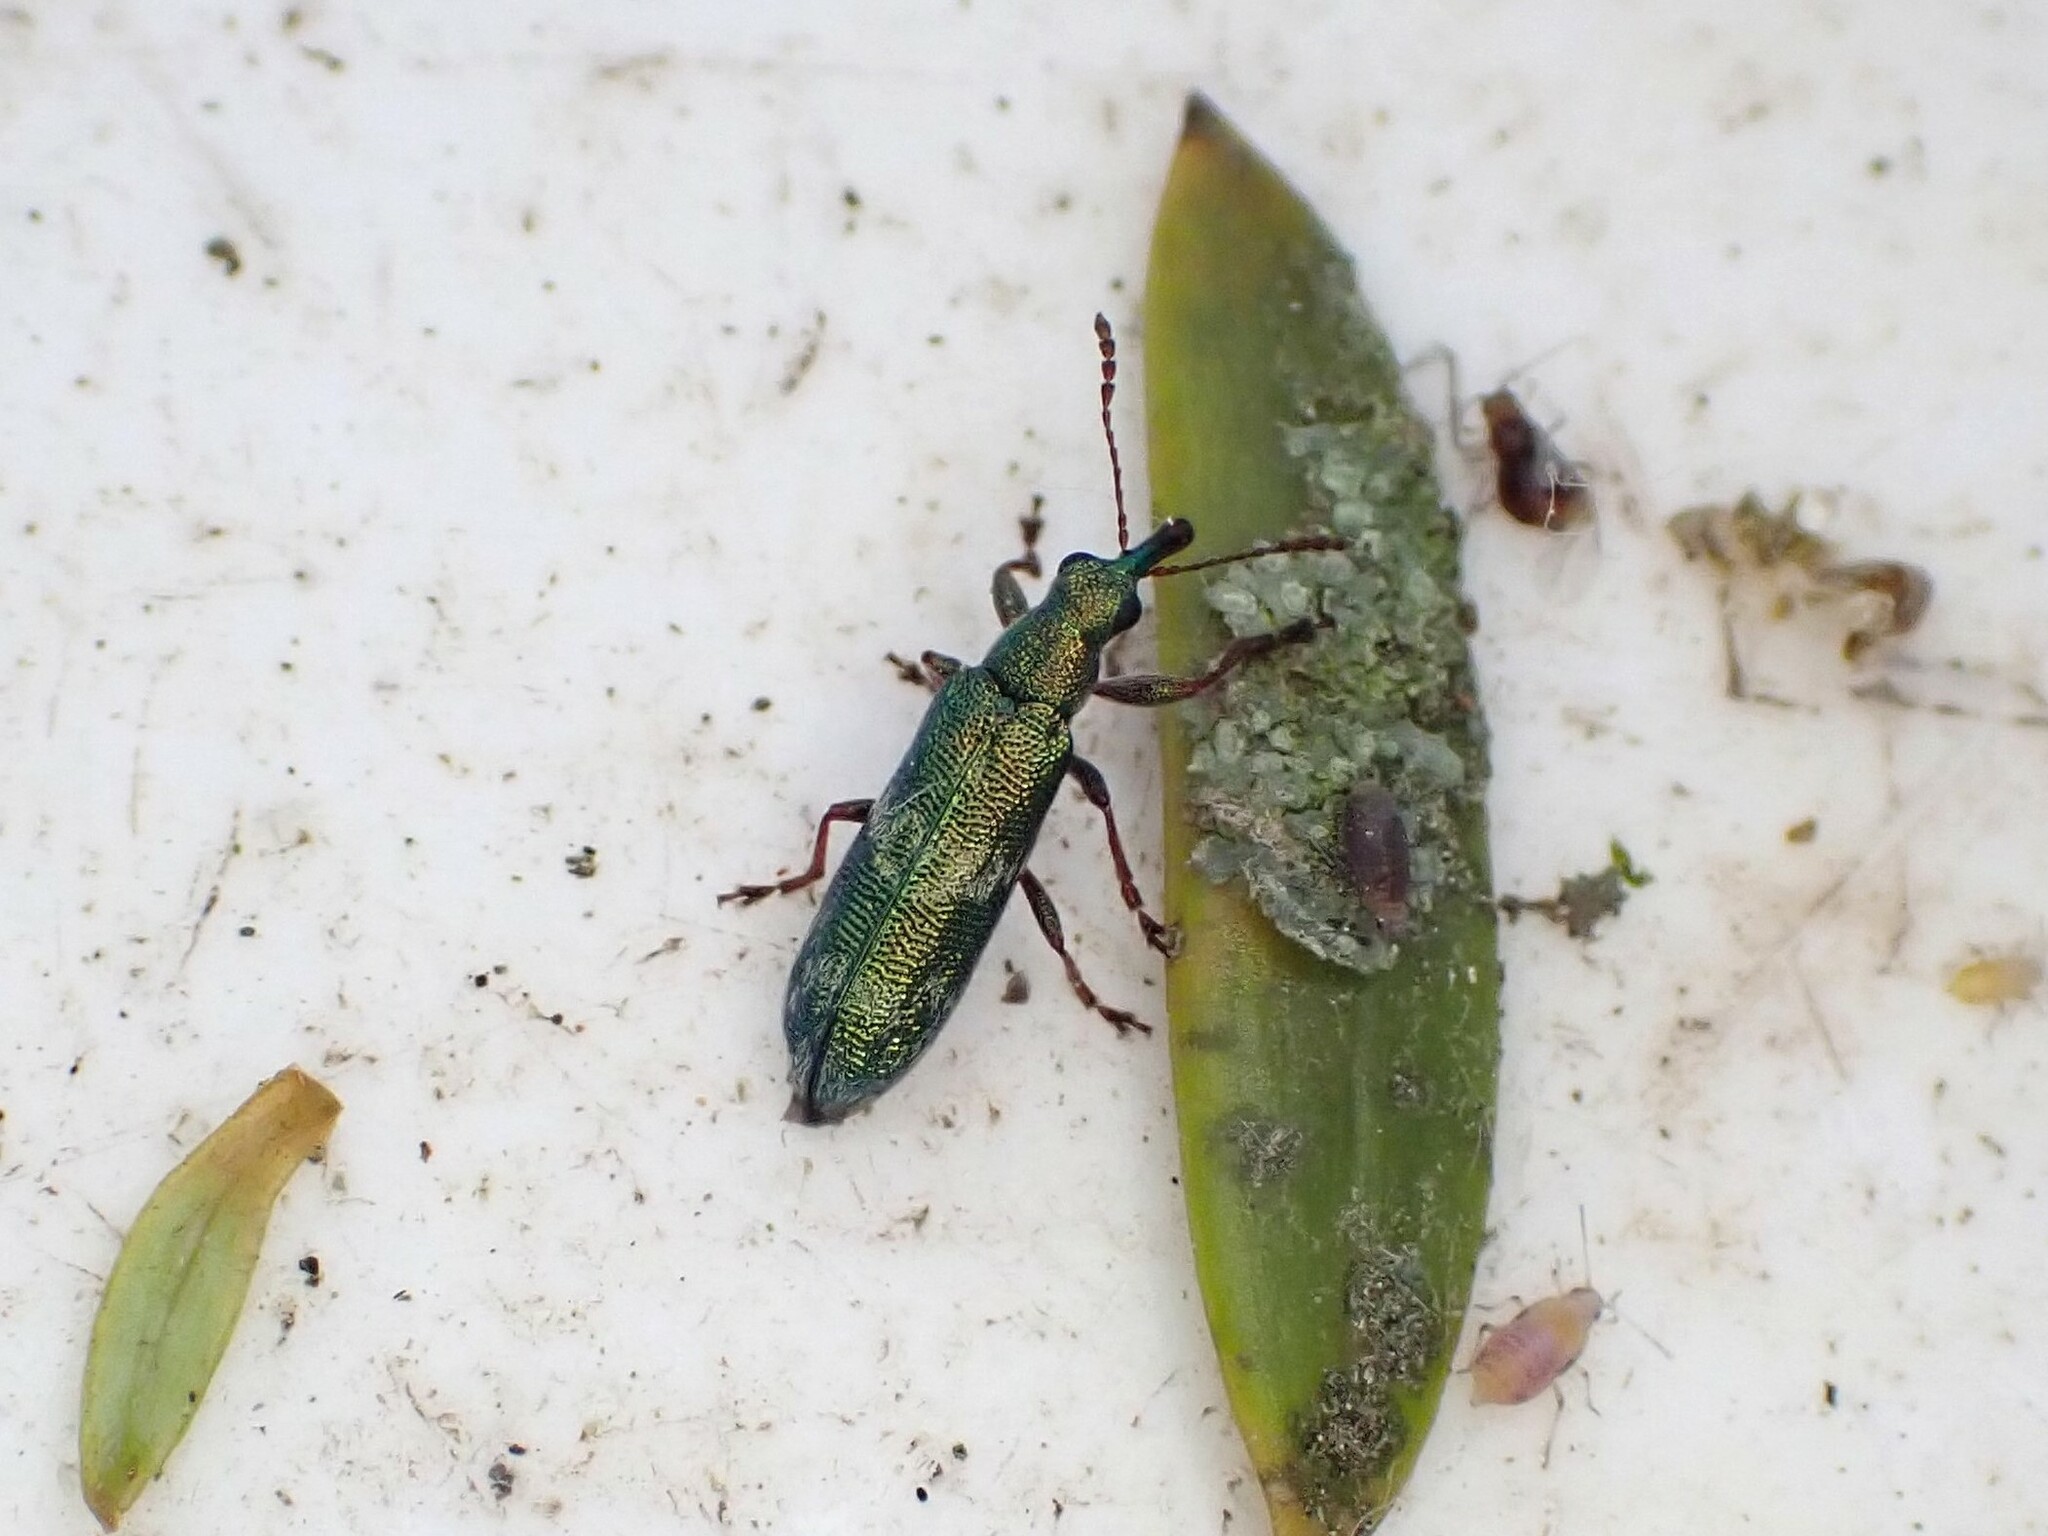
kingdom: Animalia
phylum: Arthropoda
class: Insecta
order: Coleoptera
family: Belidae
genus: Rhicnobelus
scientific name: Rhicnobelus
